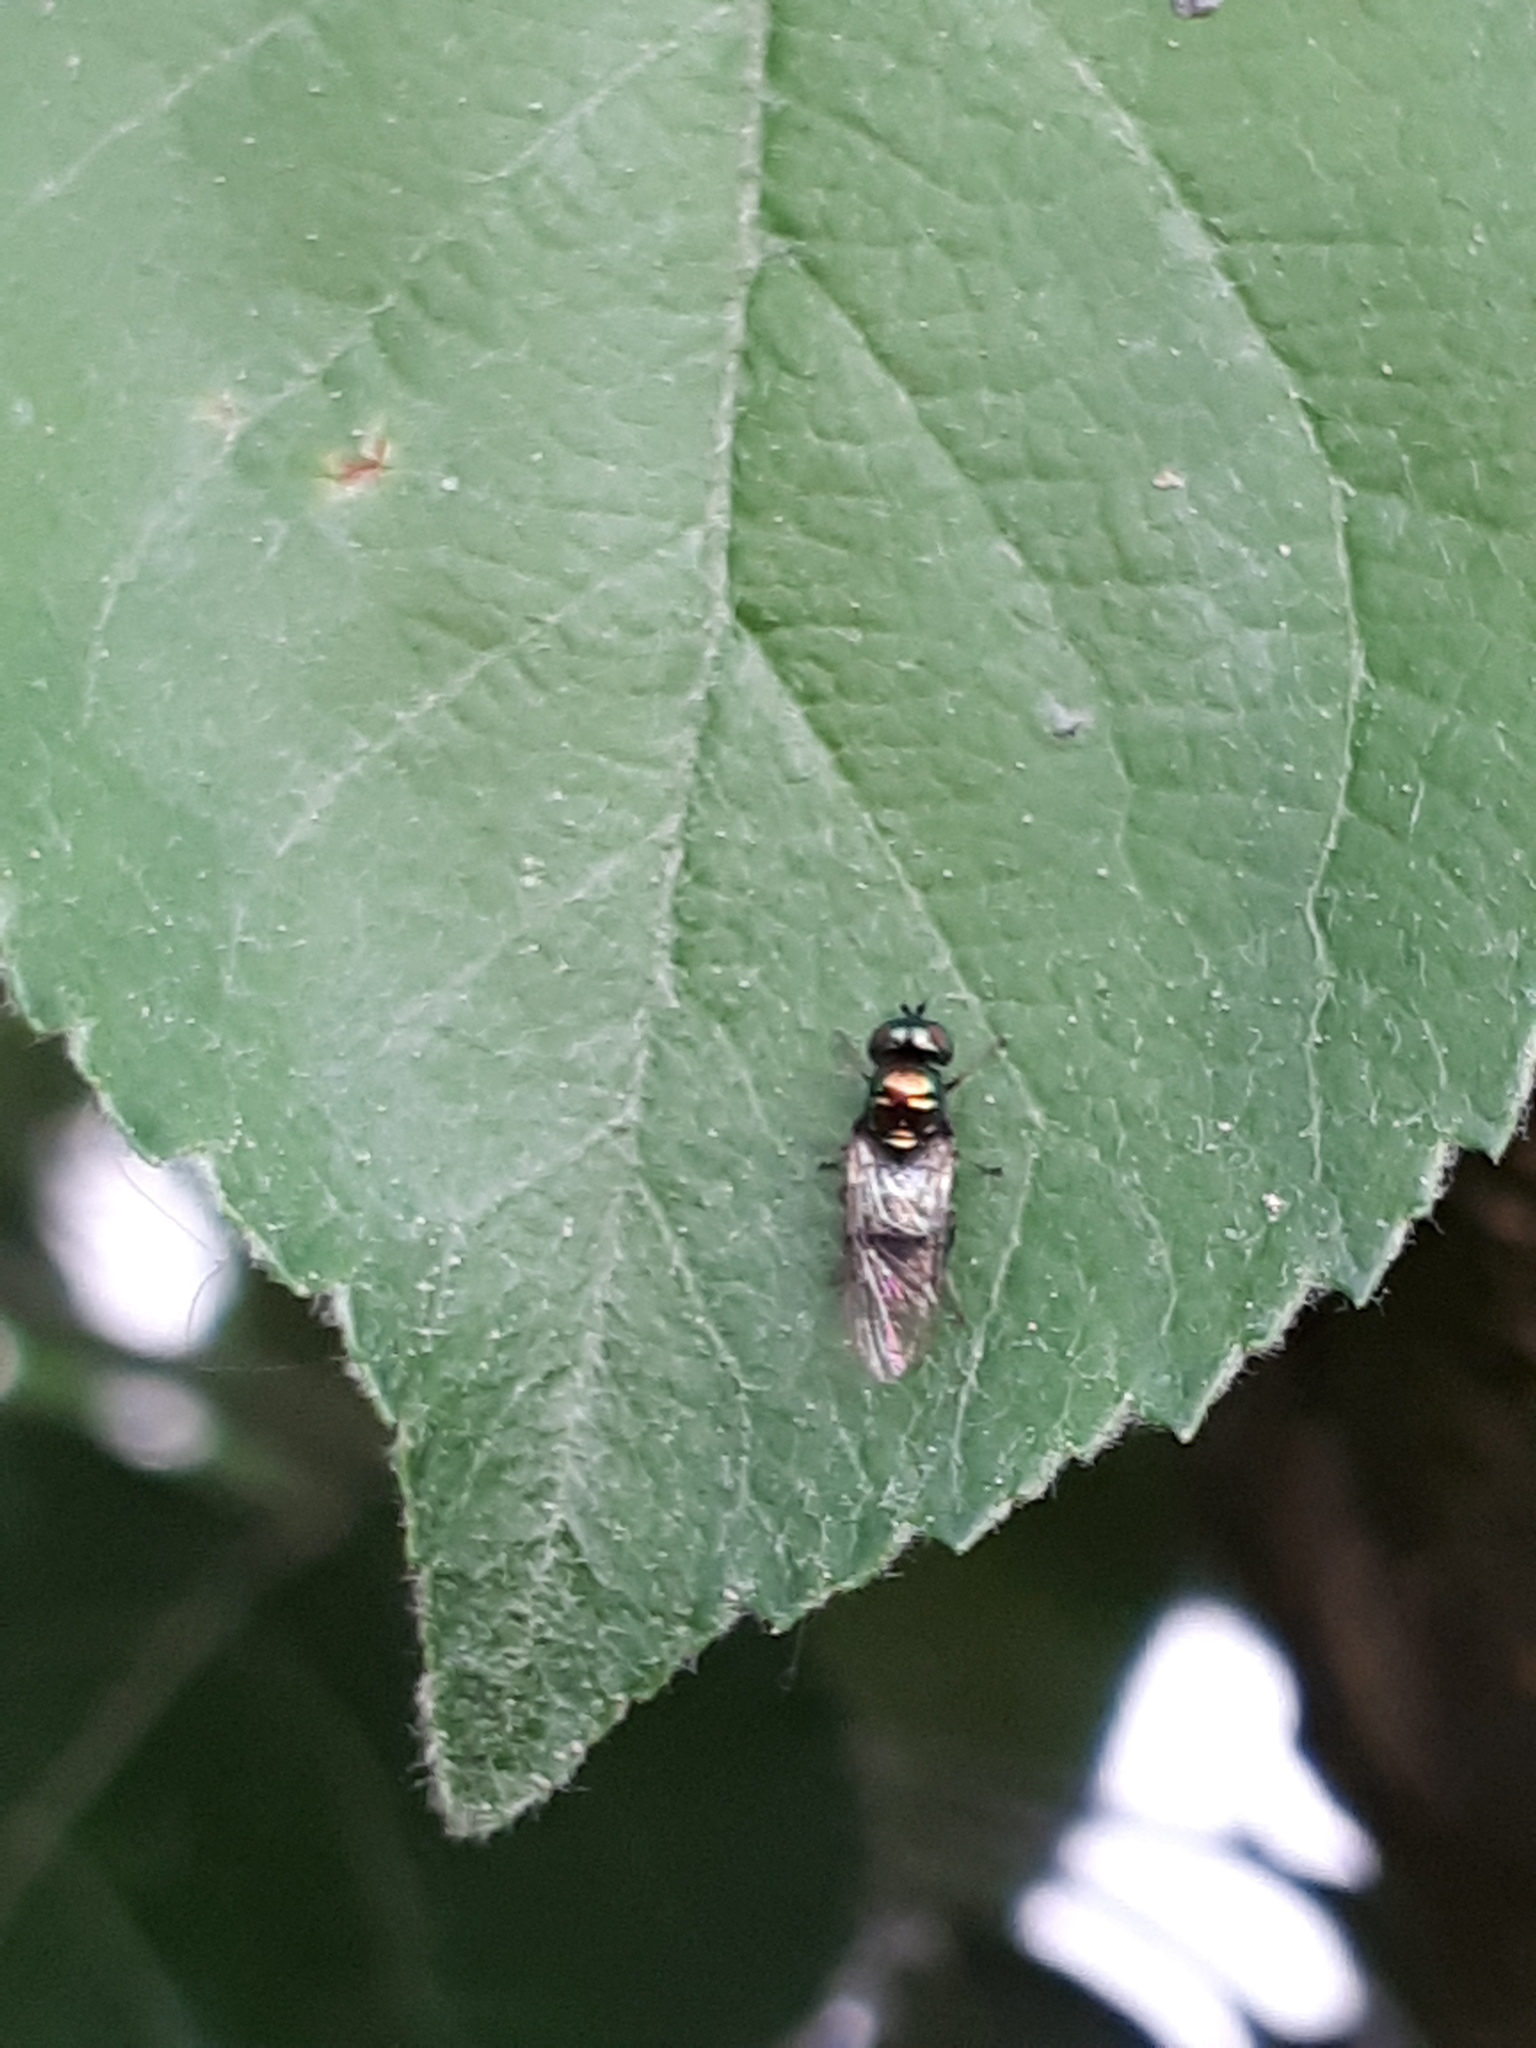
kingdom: Animalia
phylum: Arthropoda
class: Insecta
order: Diptera
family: Stratiomyidae
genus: Chloromyia
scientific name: Chloromyia formosa
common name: Soldier fly
